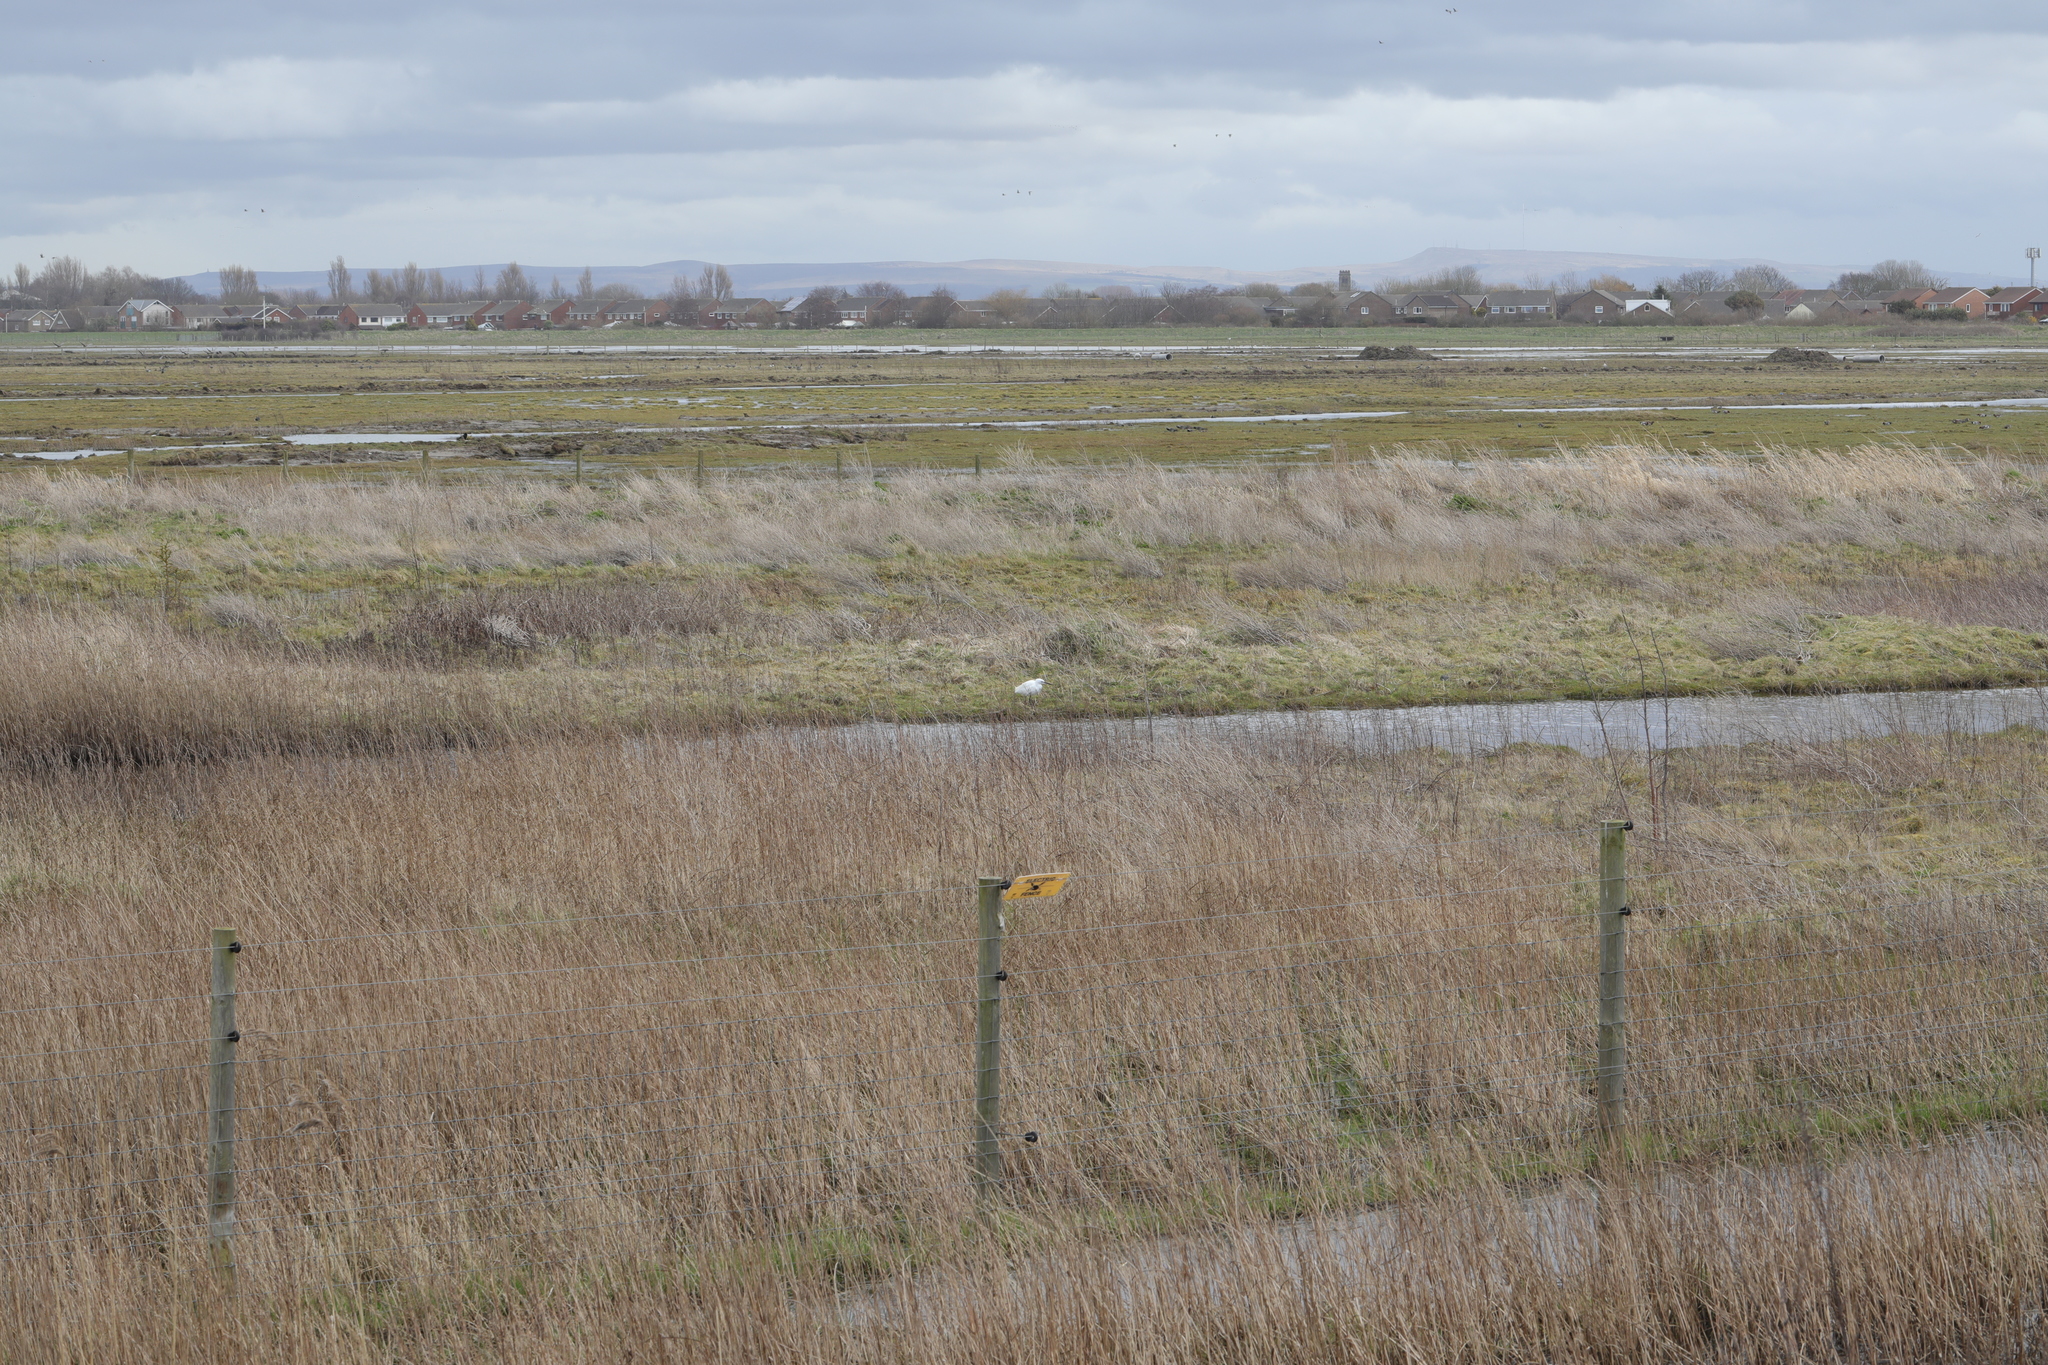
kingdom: Animalia
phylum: Chordata
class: Aves
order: Pelecaniformes
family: Ardeidae
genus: Egretta
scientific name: Egretta garzetta
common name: Little egret
